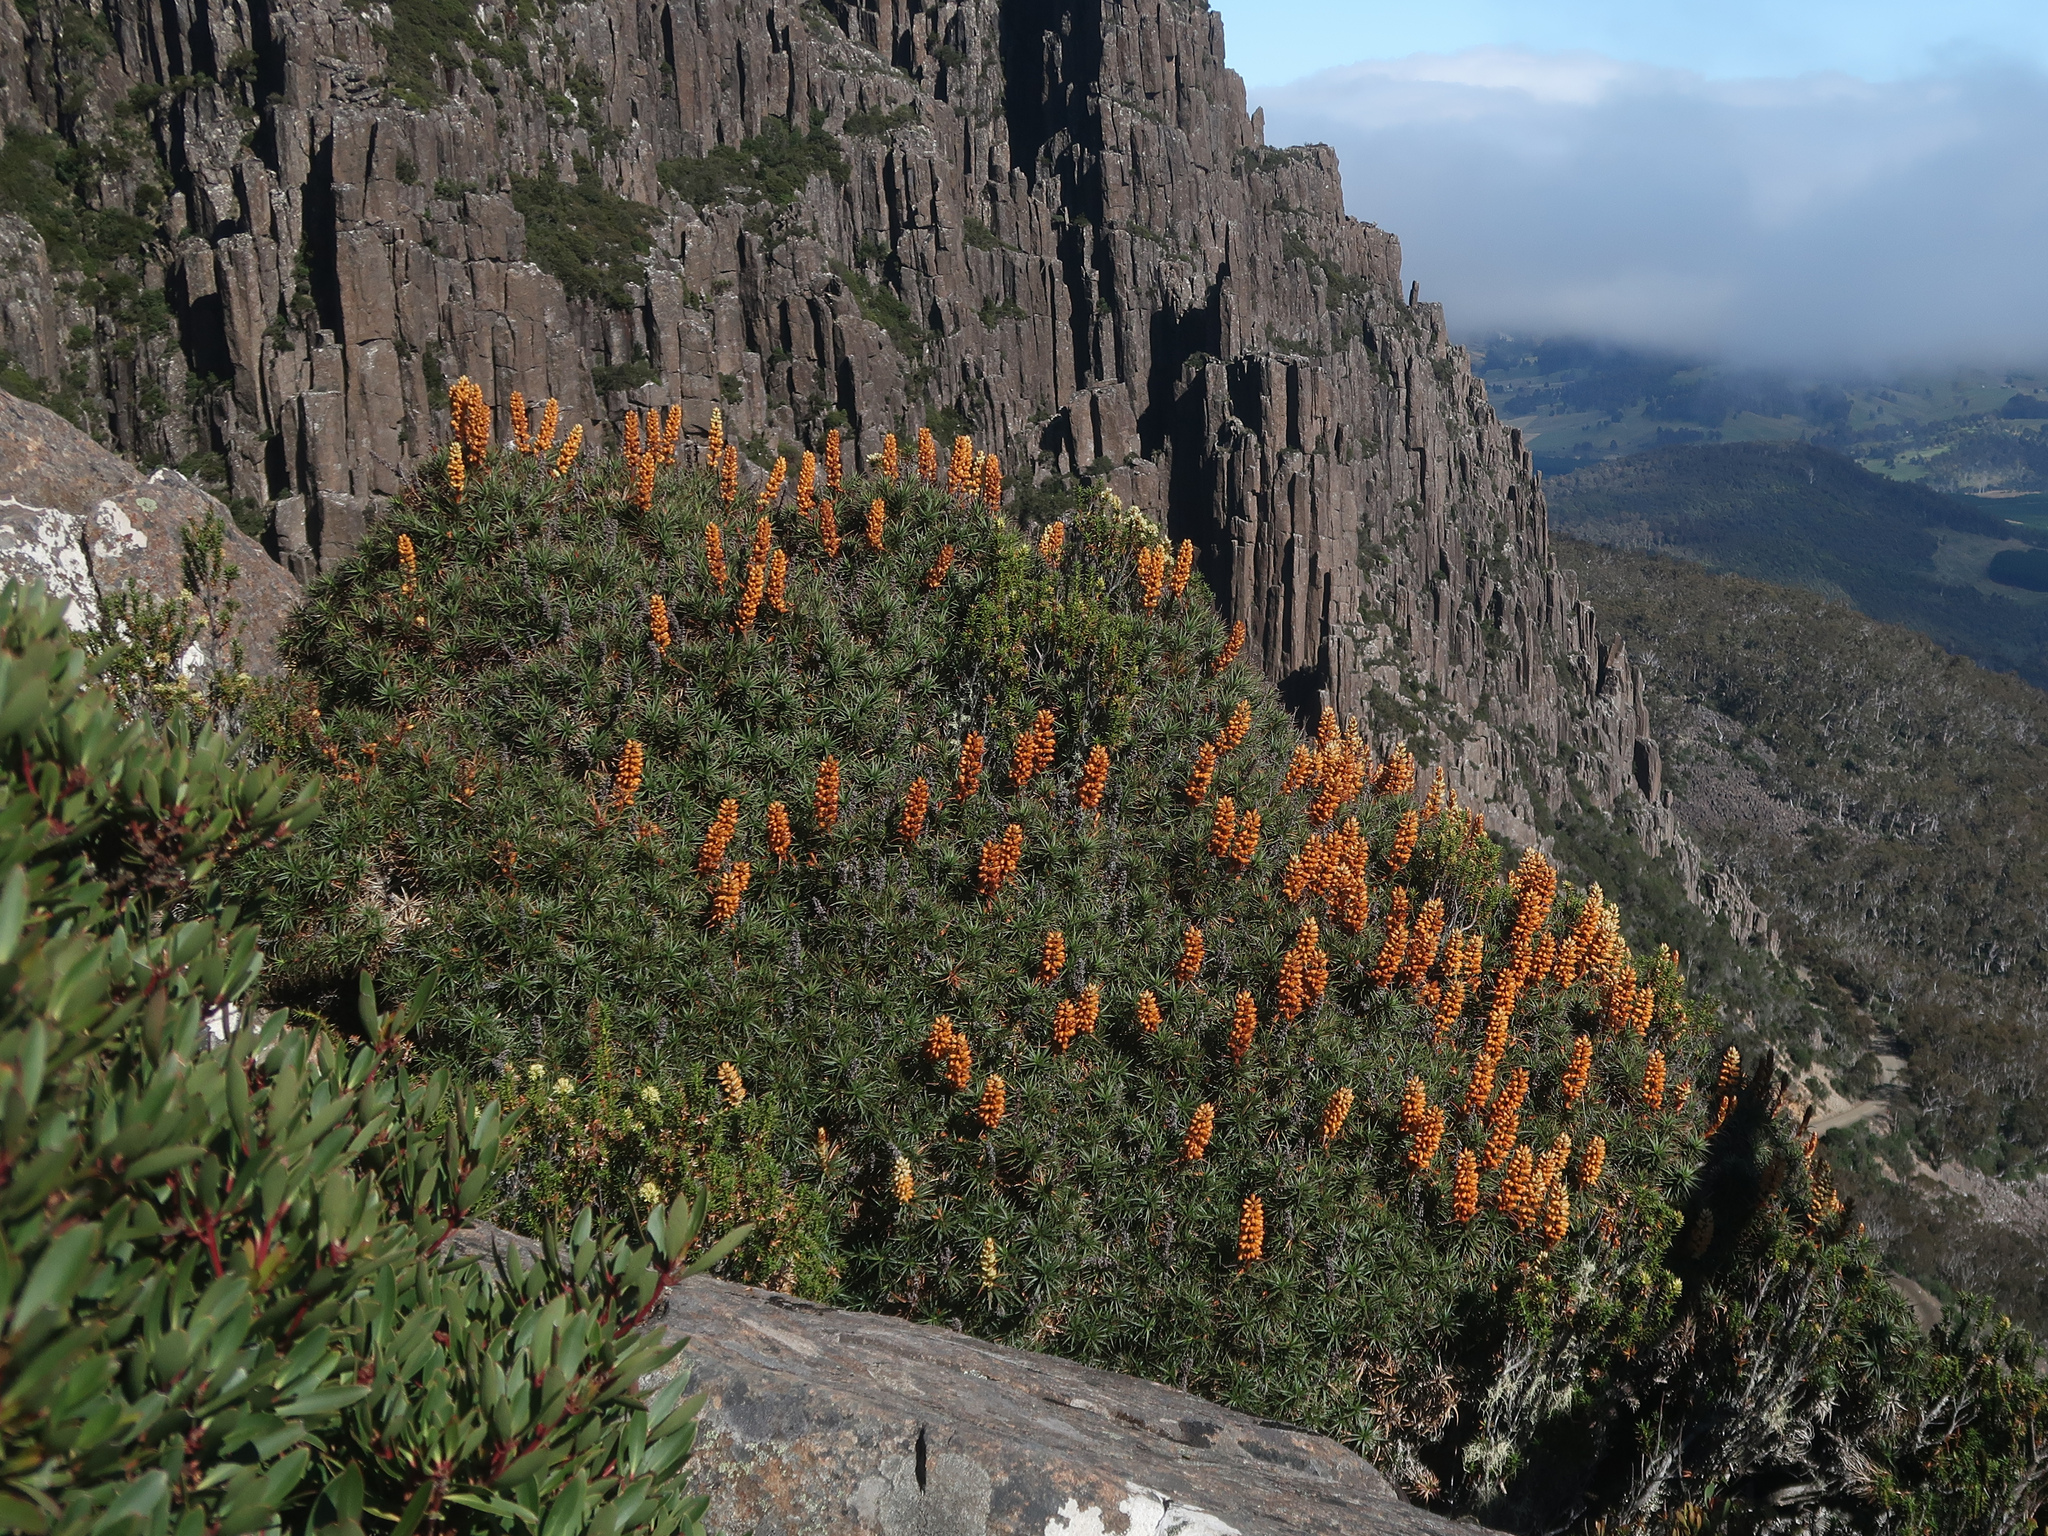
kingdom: Plantae
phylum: Tracheophyta
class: Magnoliopsida
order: Ericales
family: Ericaceae
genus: Dracophyllum
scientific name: Dracophyllum persistentifolium
